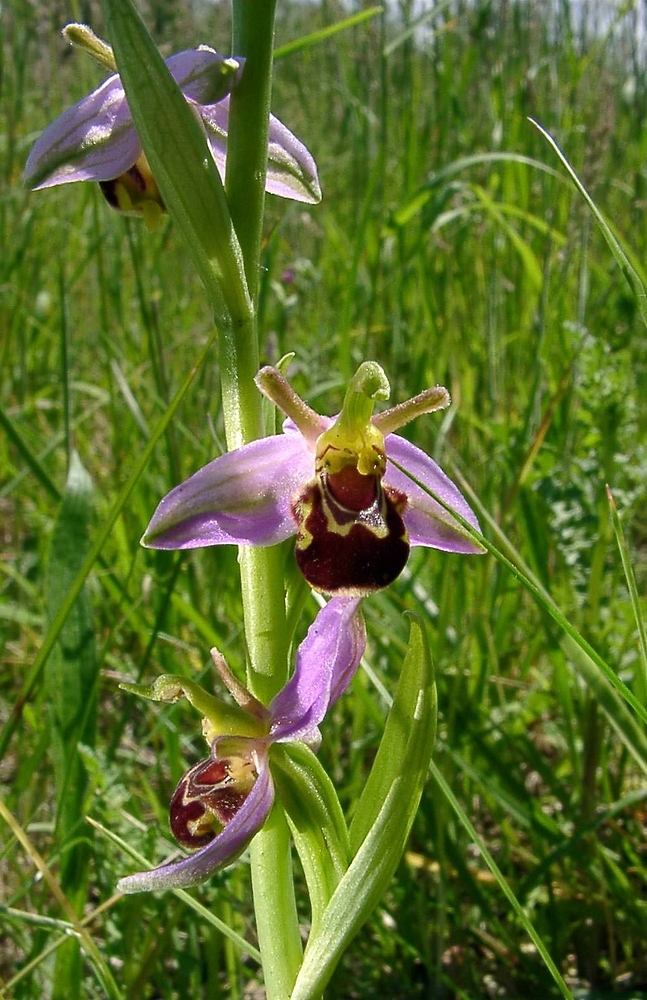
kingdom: Plantae
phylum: Tracheophyta
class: Liliopsida
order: Asparagales
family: Orchidaceae
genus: Ophrys
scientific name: Ophrys apifera
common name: Bee orchid
